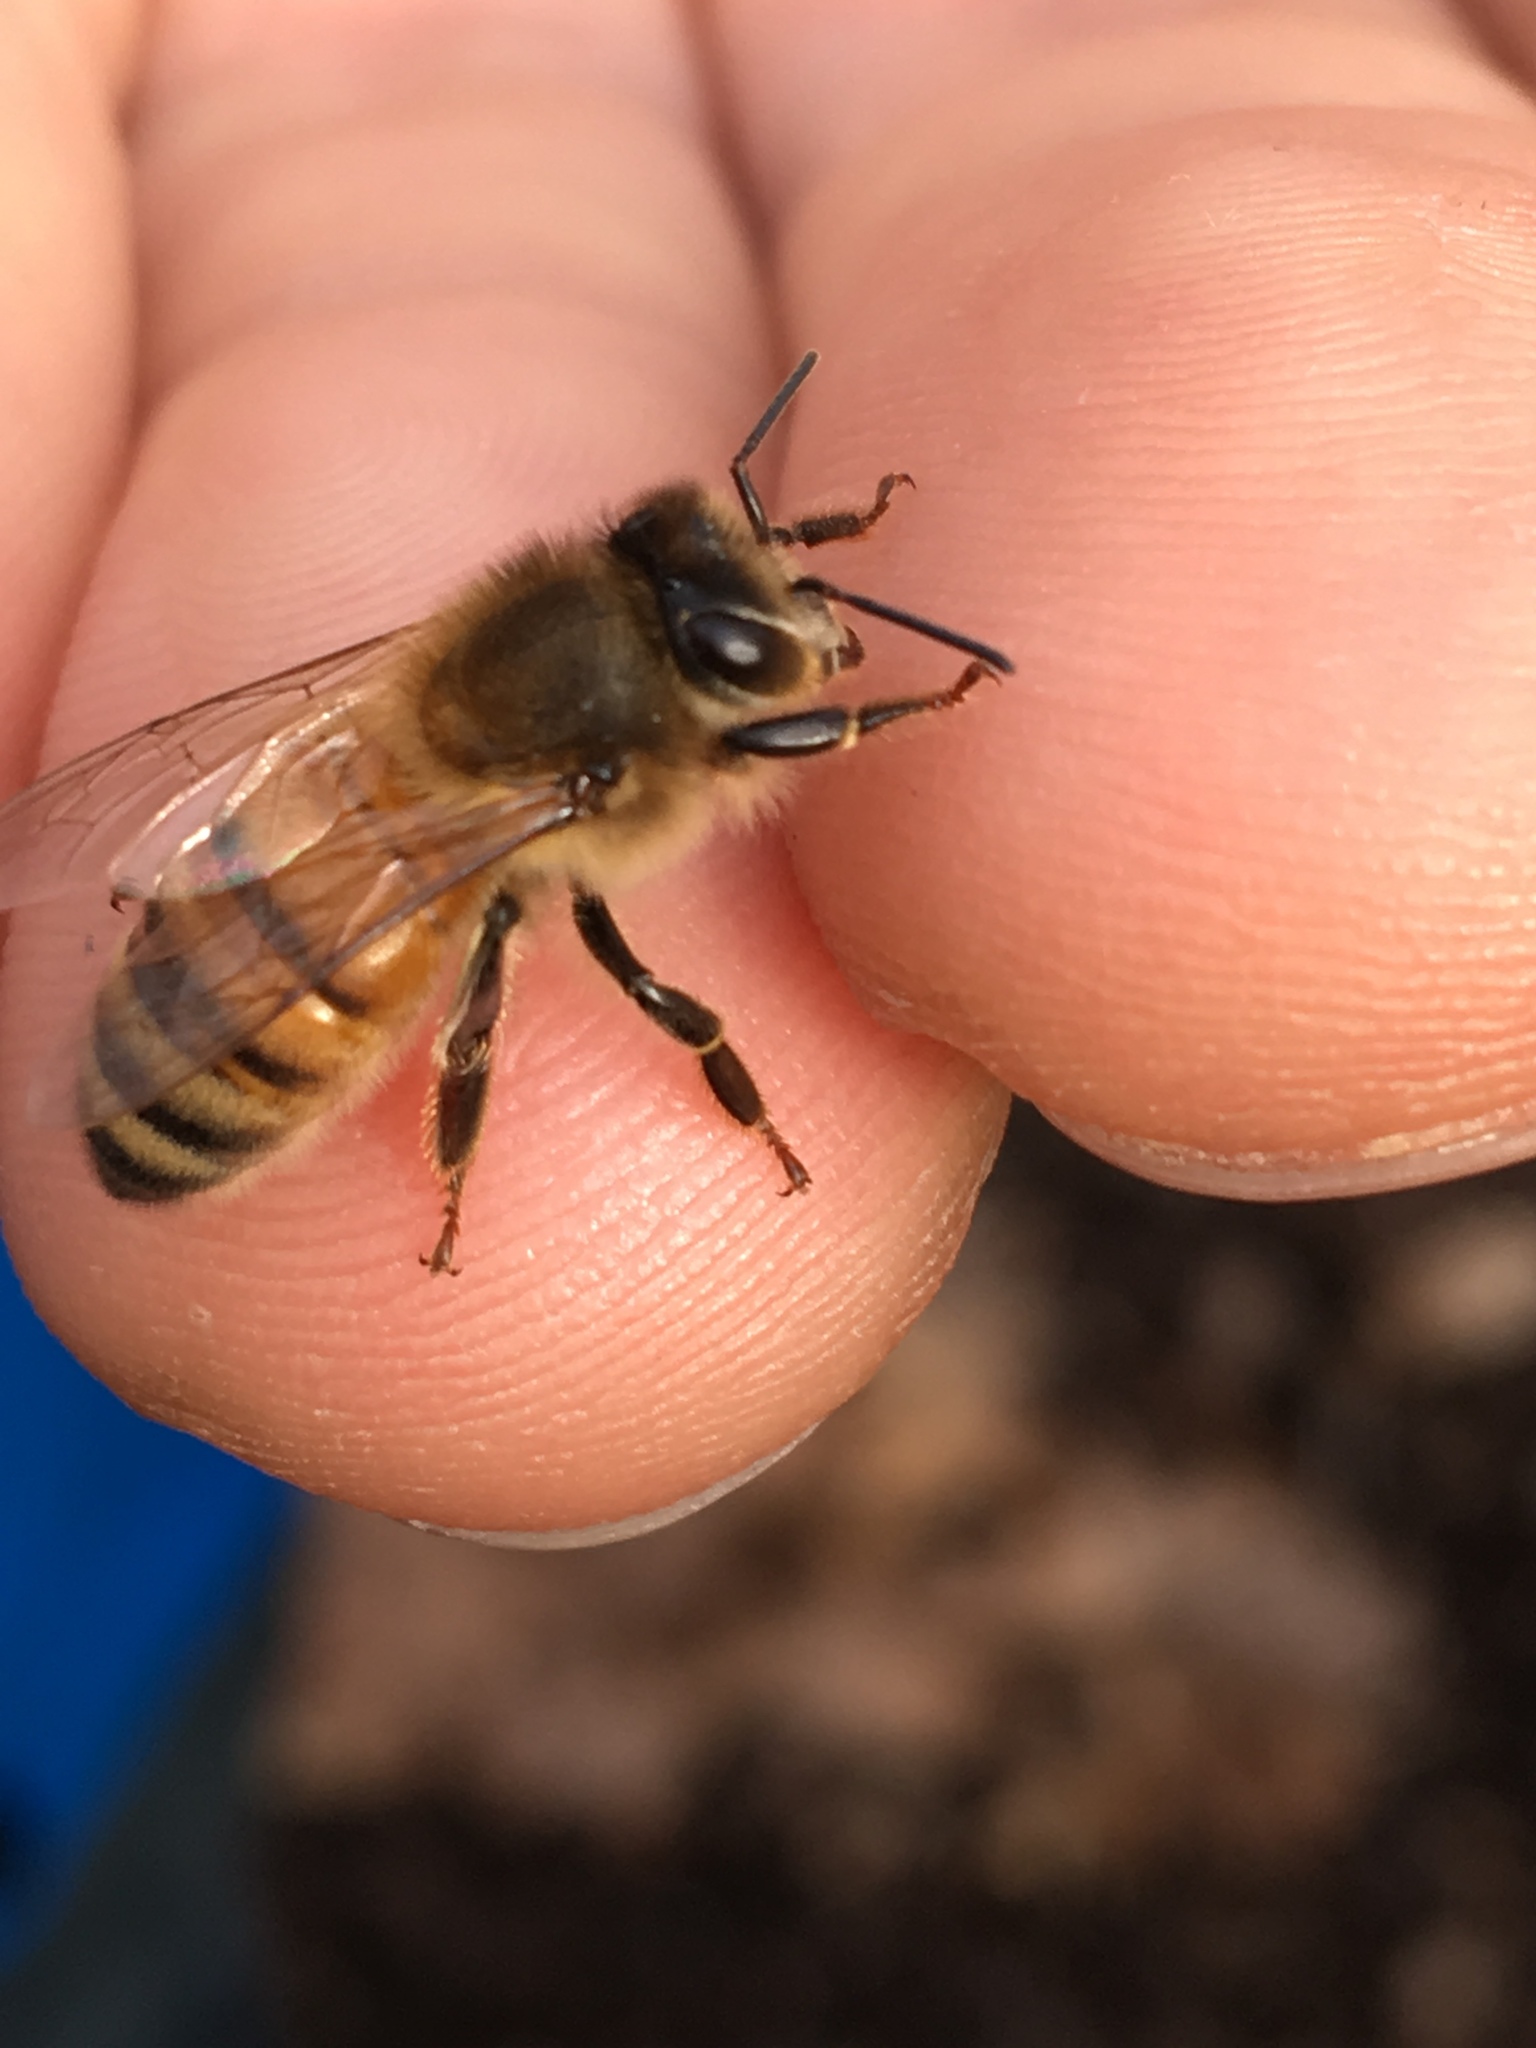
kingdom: Animalia
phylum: Arthropoda
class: Insecta
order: Hymenoptera
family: Apidae
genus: Apis
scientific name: Apis mellifera
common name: Honey bee
